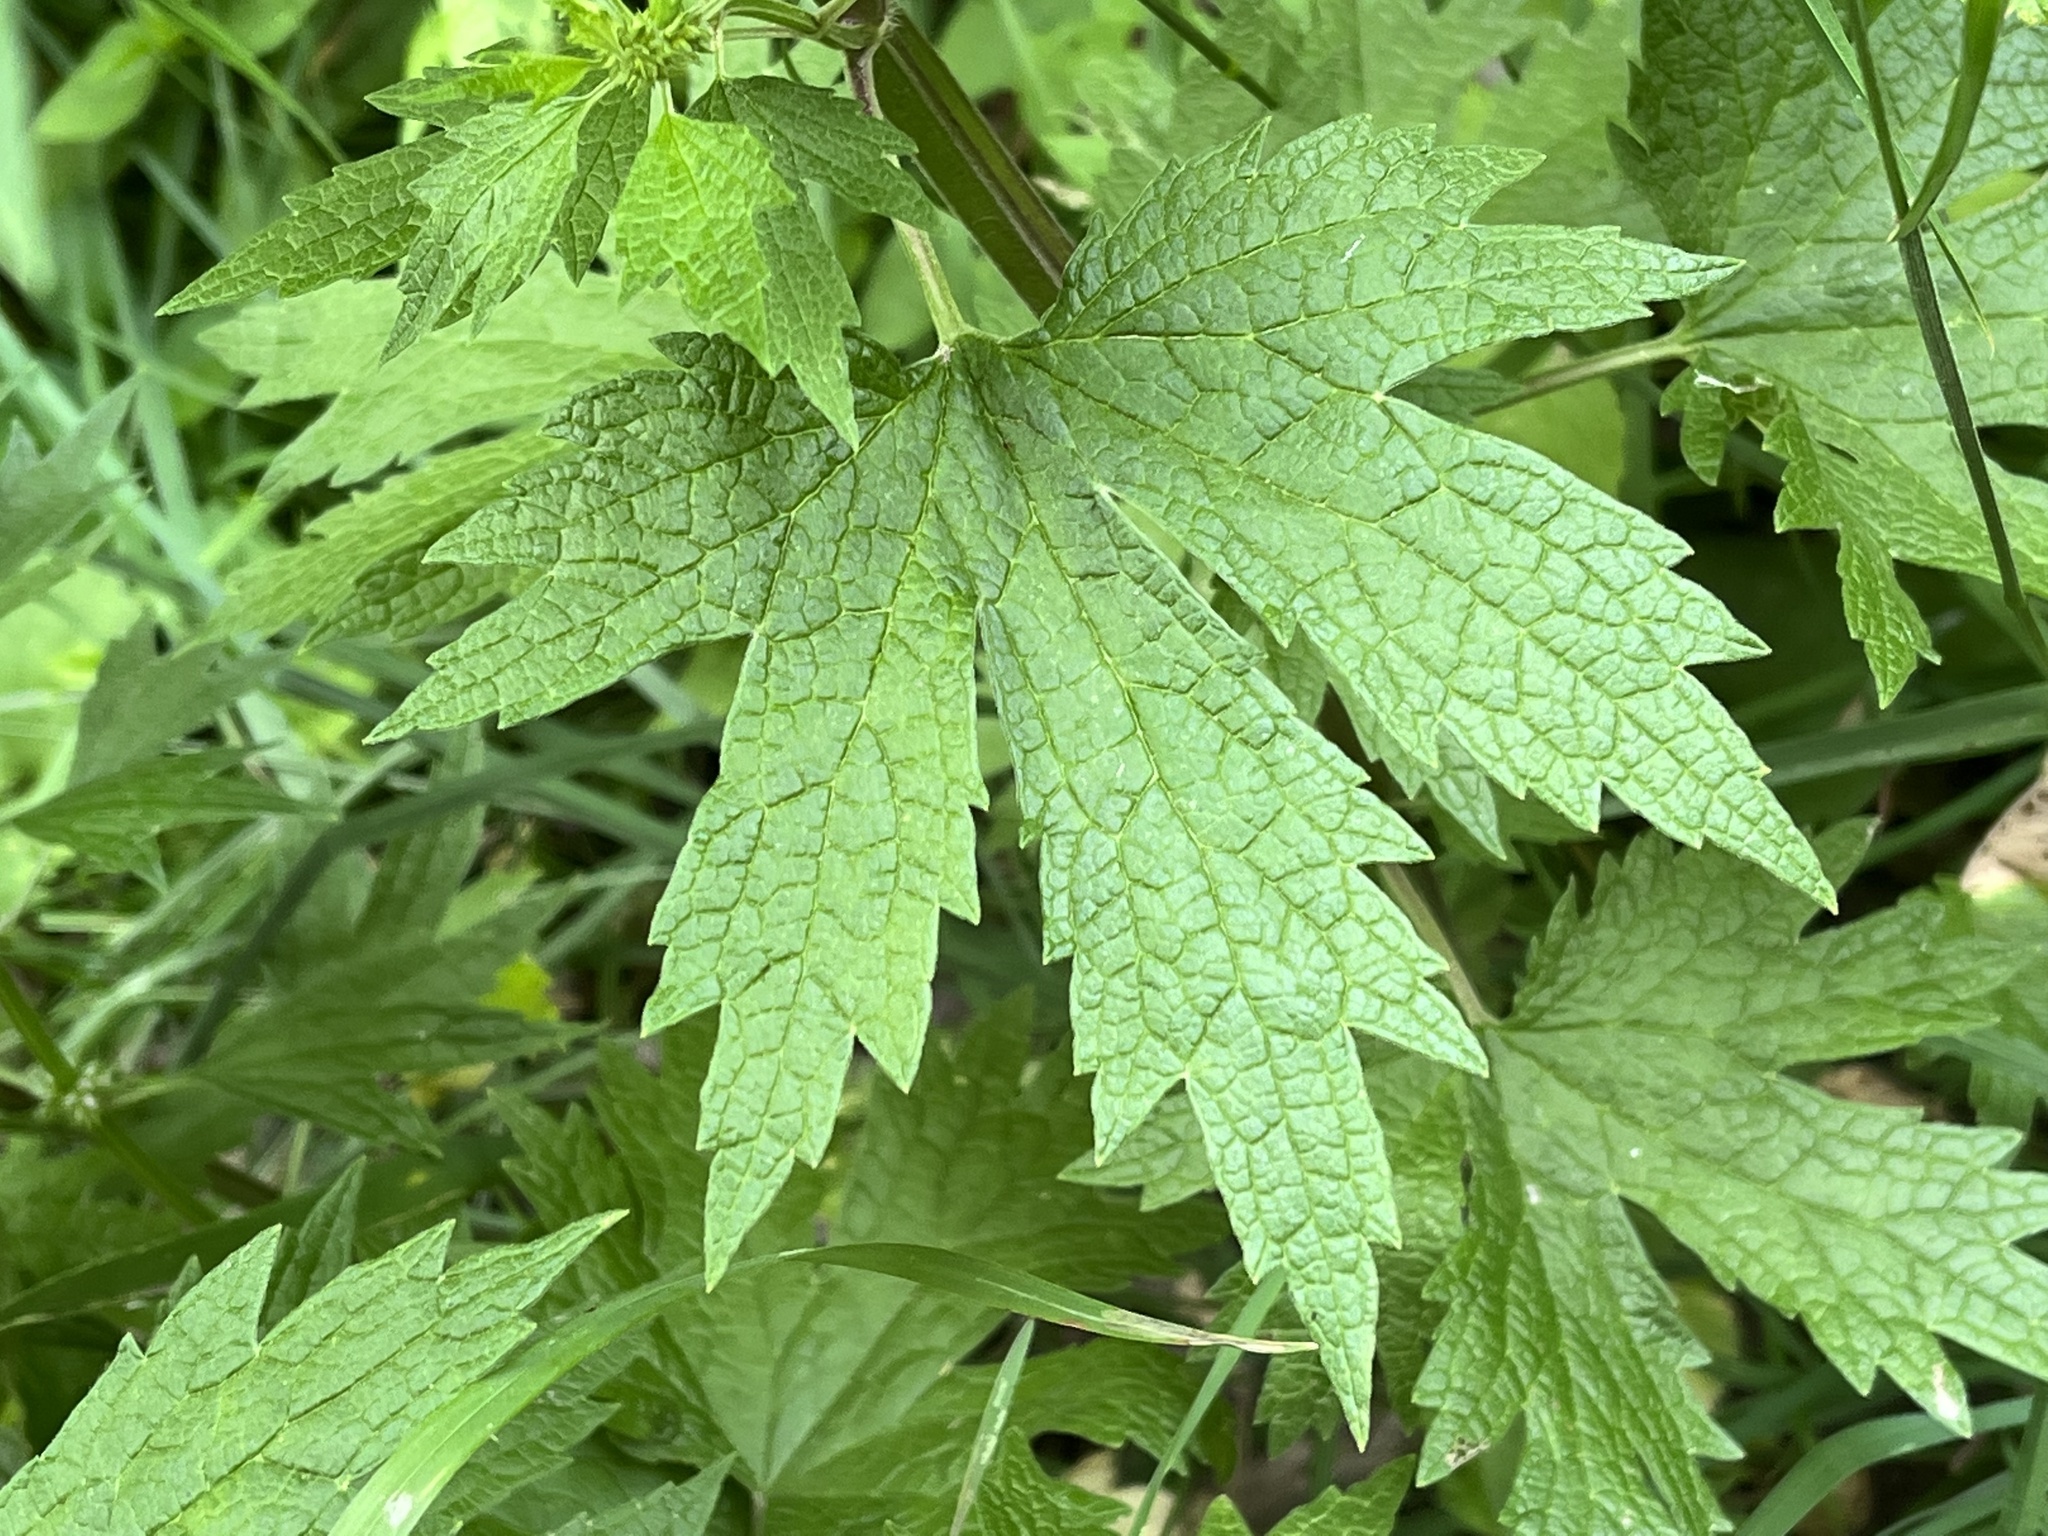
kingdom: Plantae
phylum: Tracheophyta
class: Magnoliopsida
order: Lamiales
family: Lamiaceae
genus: Leonurus
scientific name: Leonurus cardiaca
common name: Motherwort
